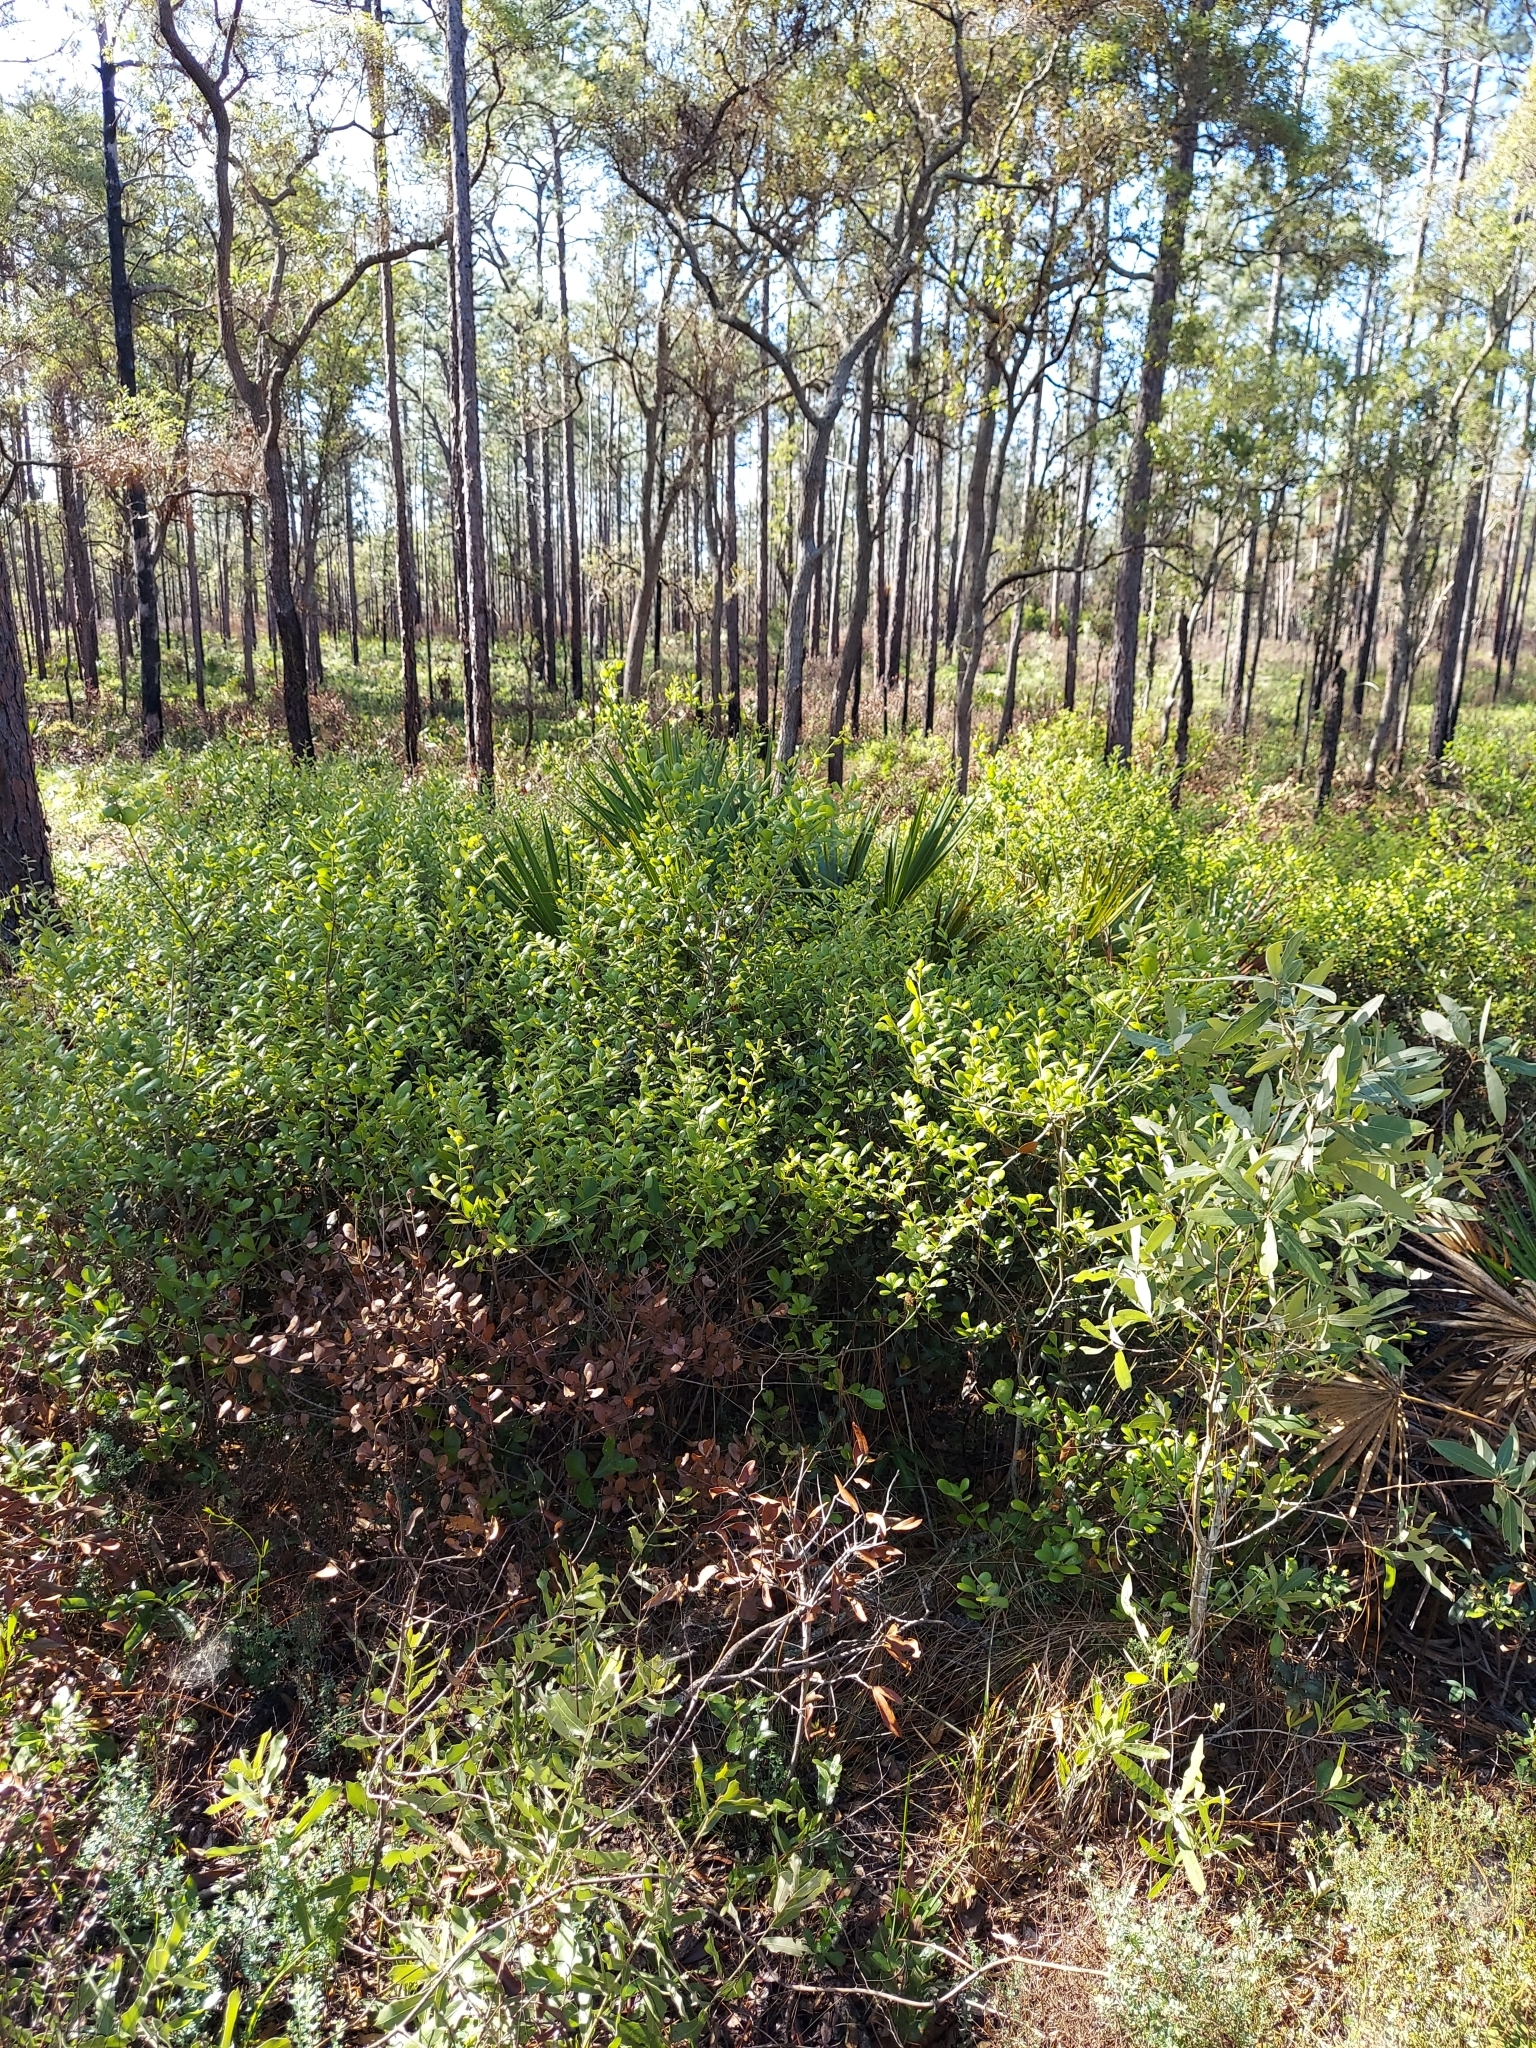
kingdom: Plantae
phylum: Tracheophyta
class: Magnoliopsida
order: Fagales
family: Fagaceae
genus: Quercus
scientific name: Quercus myrtifolia
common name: Myrtle oak
